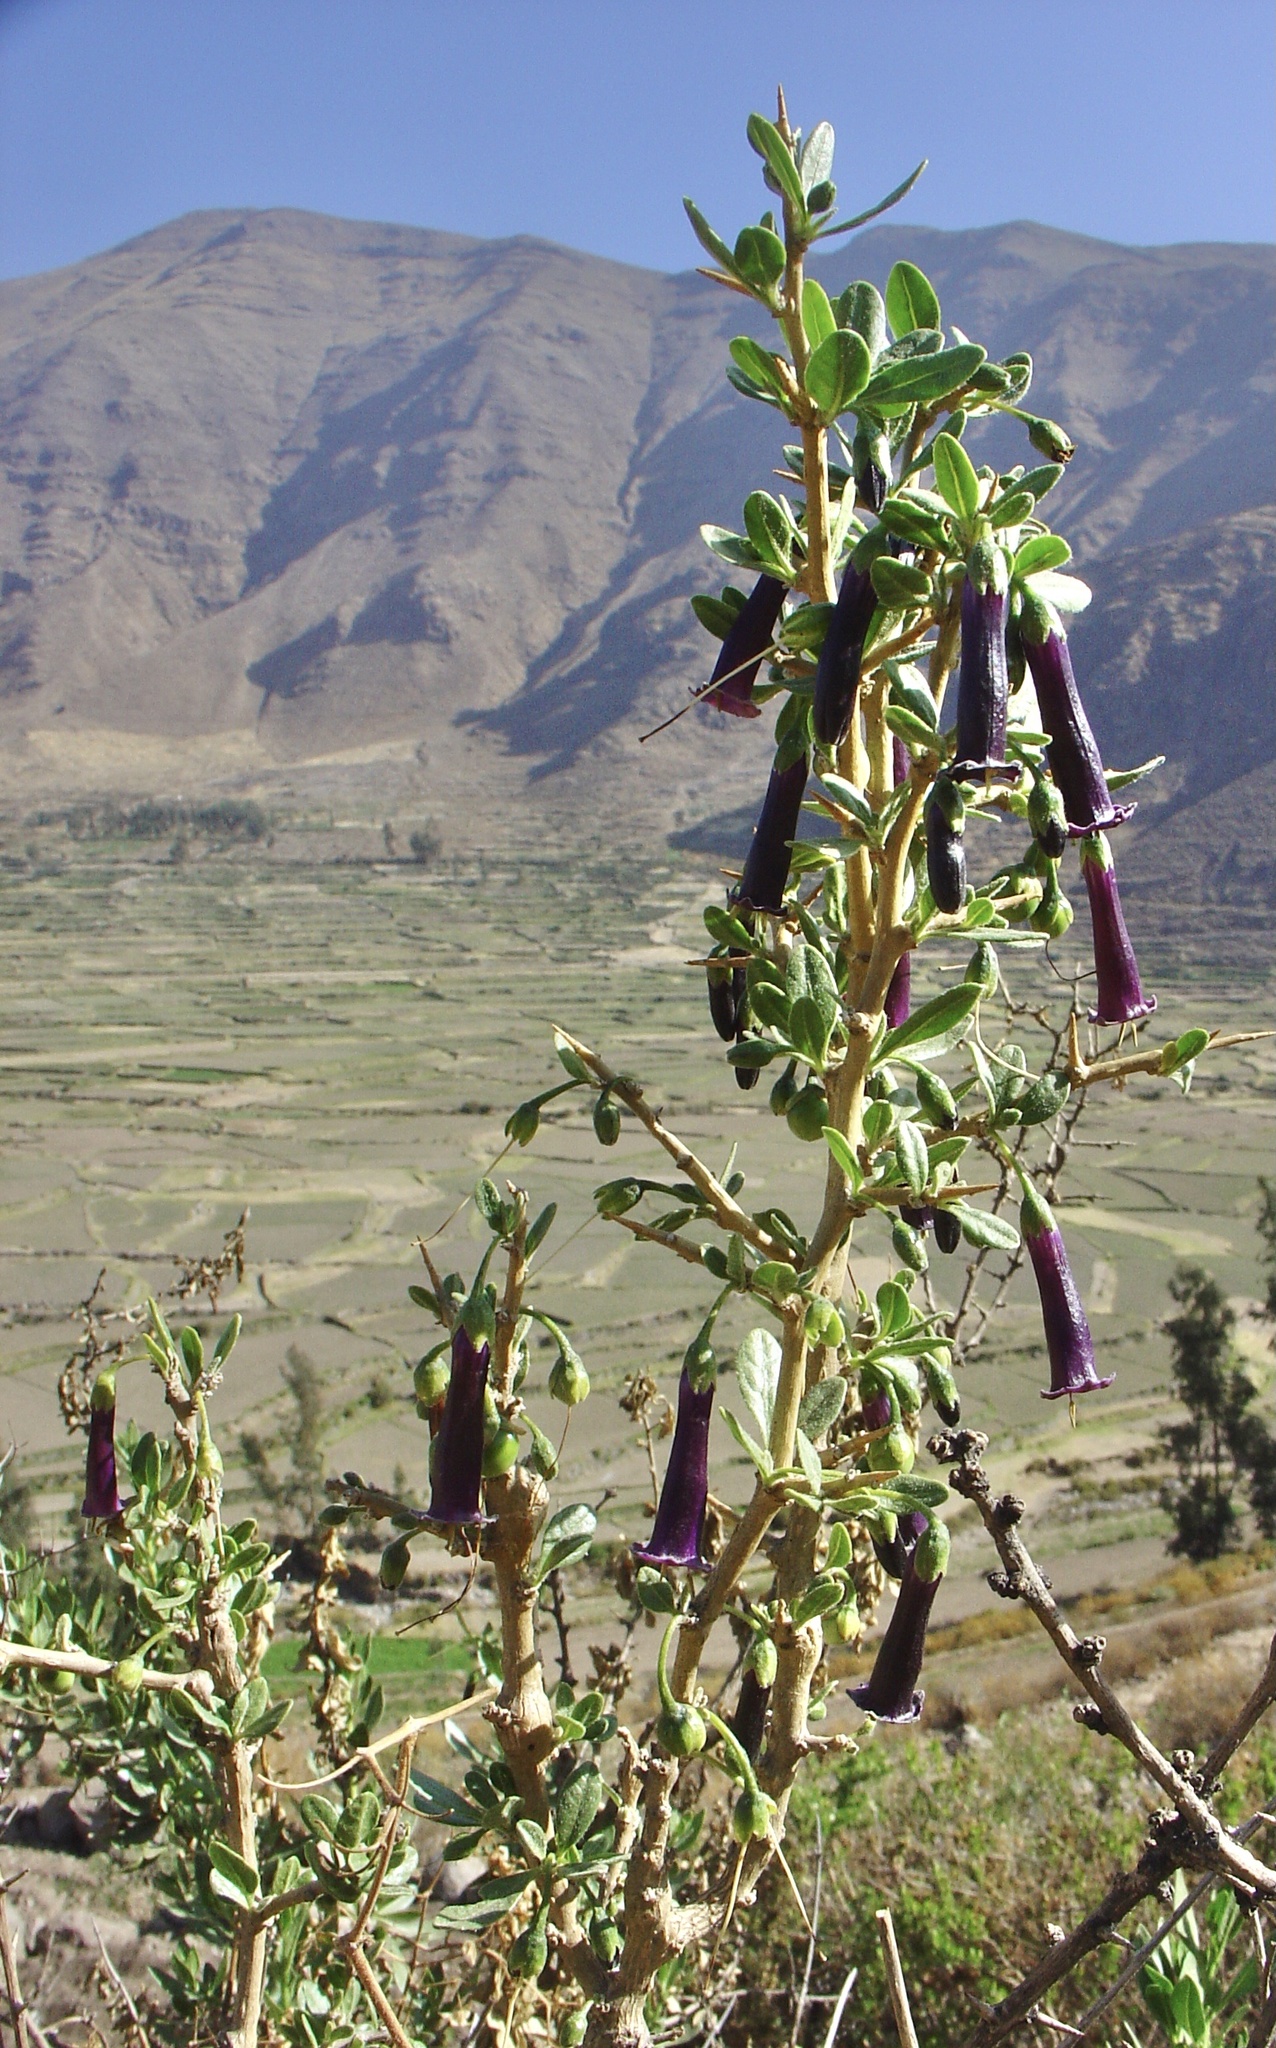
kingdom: Plantae
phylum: Tracheophyta
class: Magnoliopsida
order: Solanales
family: Solanaceae
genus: Dunalia
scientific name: Dunalia spinosa
